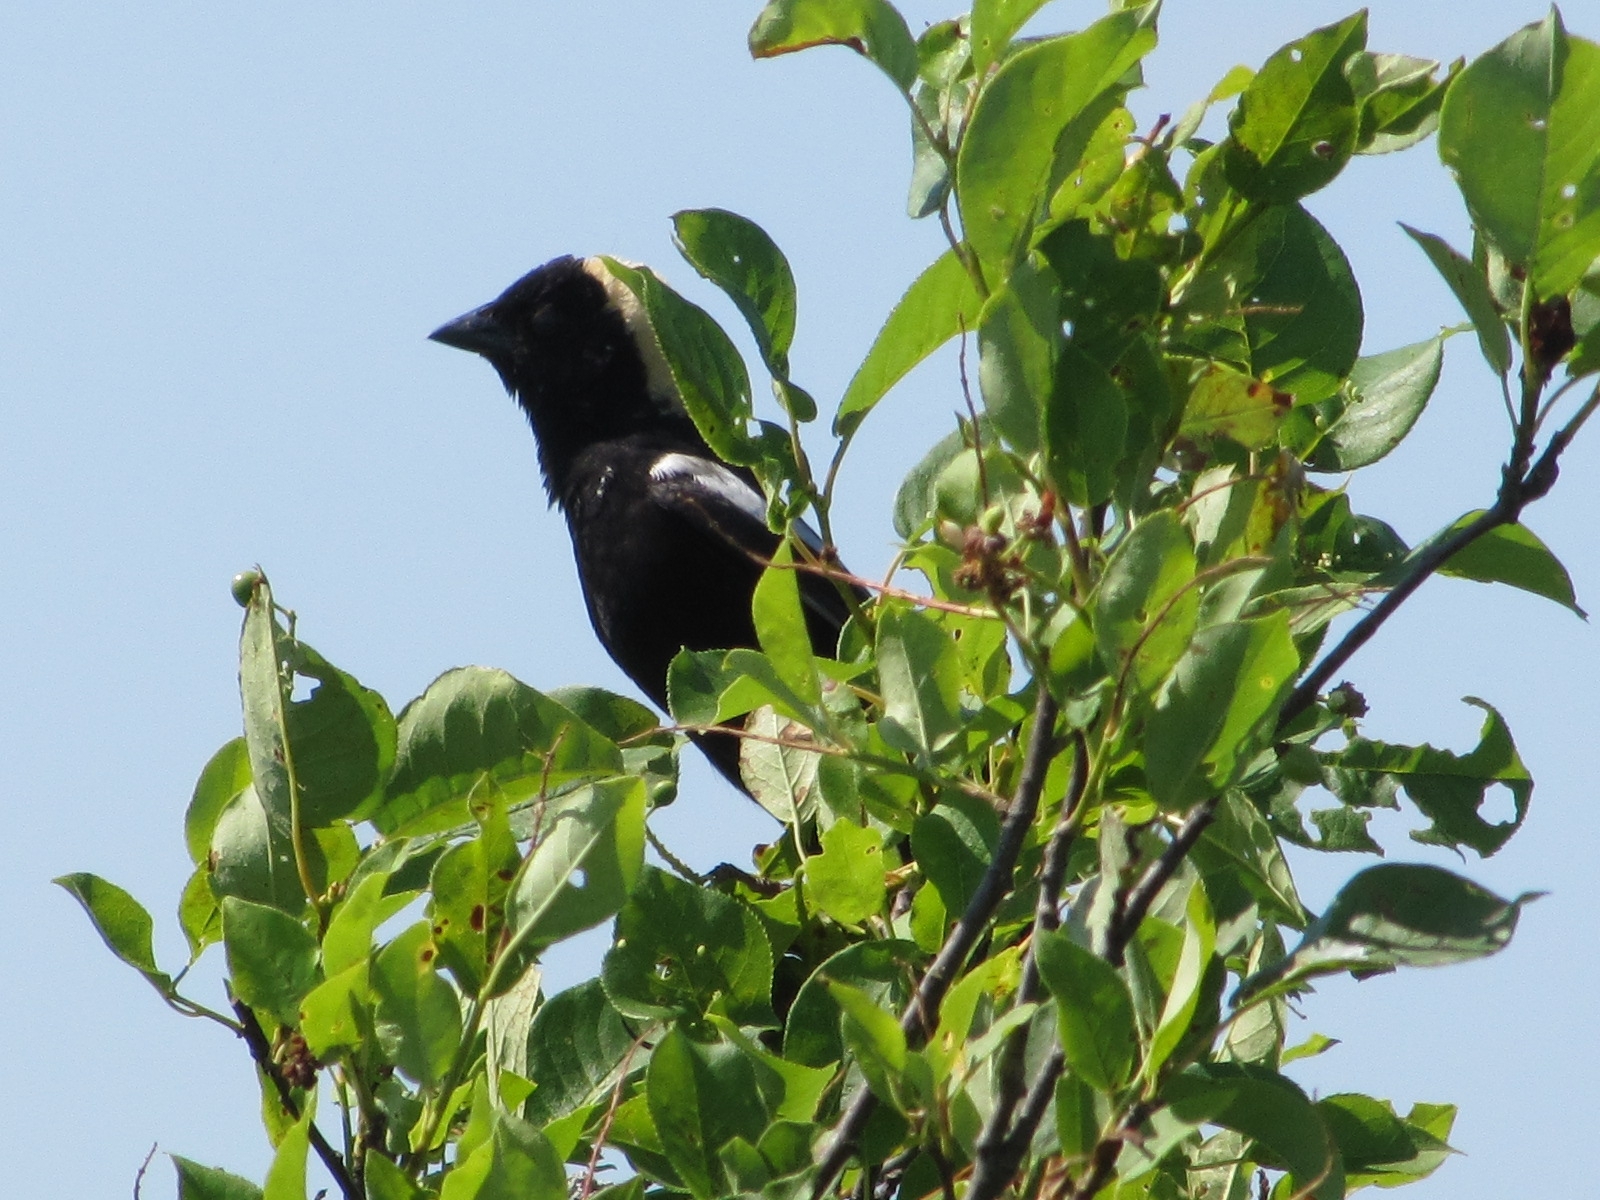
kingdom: Animalia
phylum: Chordata
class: Aves
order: Passeriformes
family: Icteridae
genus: Dolichonyx
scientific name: Dolichonyx oryzivorus
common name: Bobolink
